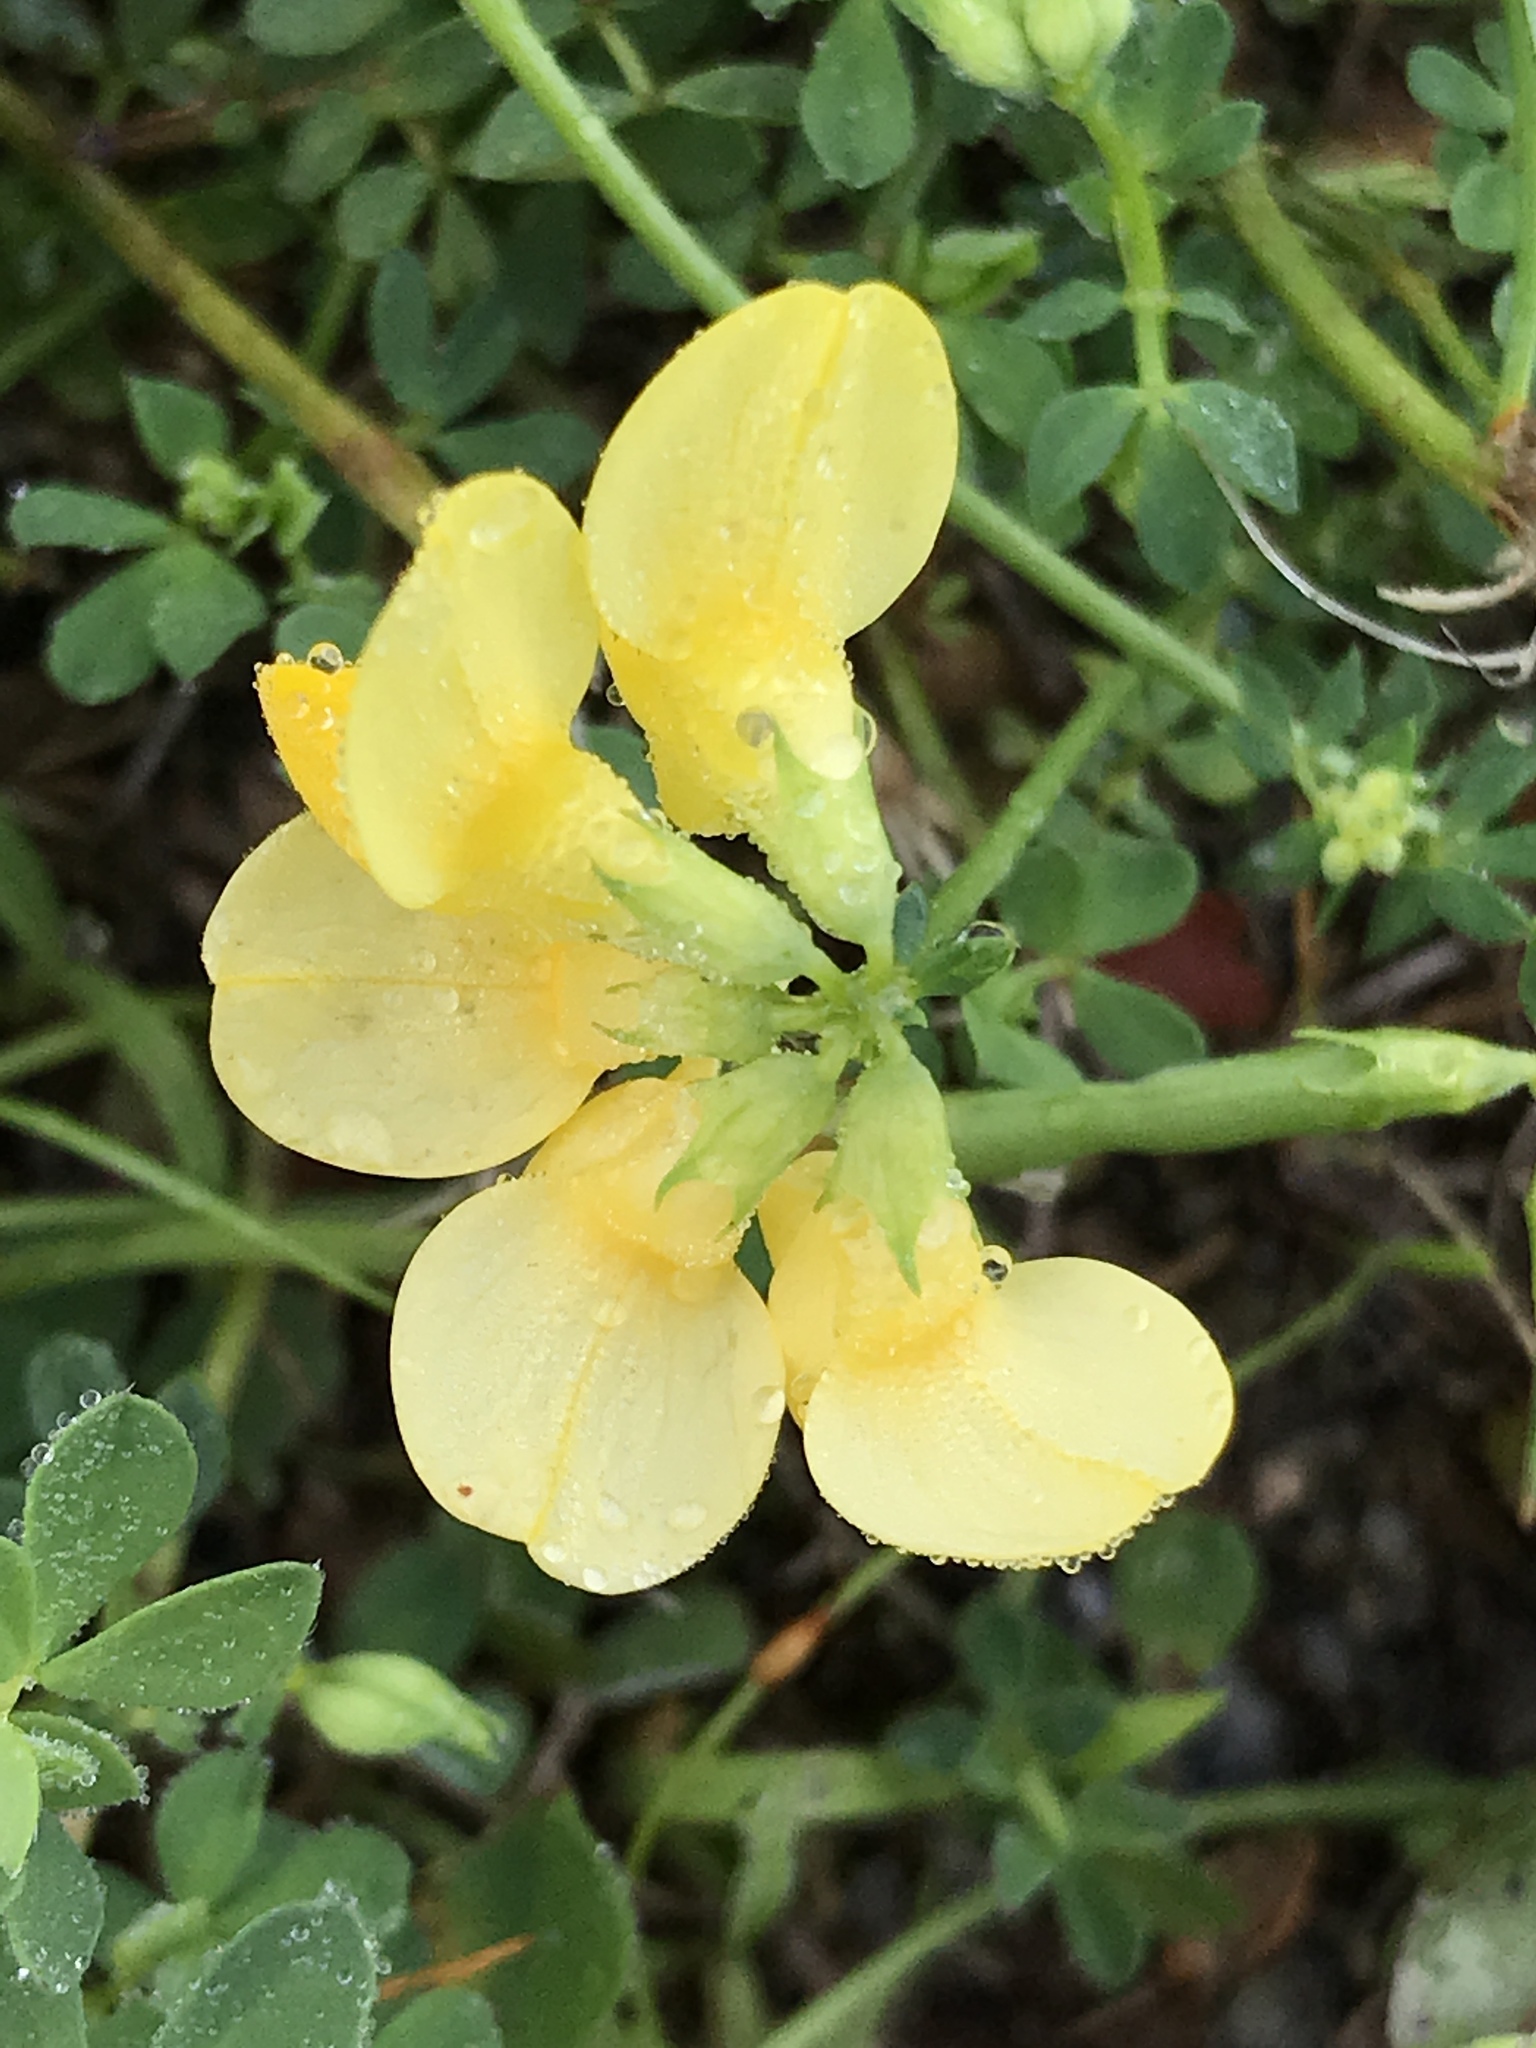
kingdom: Plantae
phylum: Tracheophyta
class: Magnoliopsida
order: Fabales
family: Fabaceae
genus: Lotus
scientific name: Lotus corniculatus
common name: Common bird's-foot-trefoil
